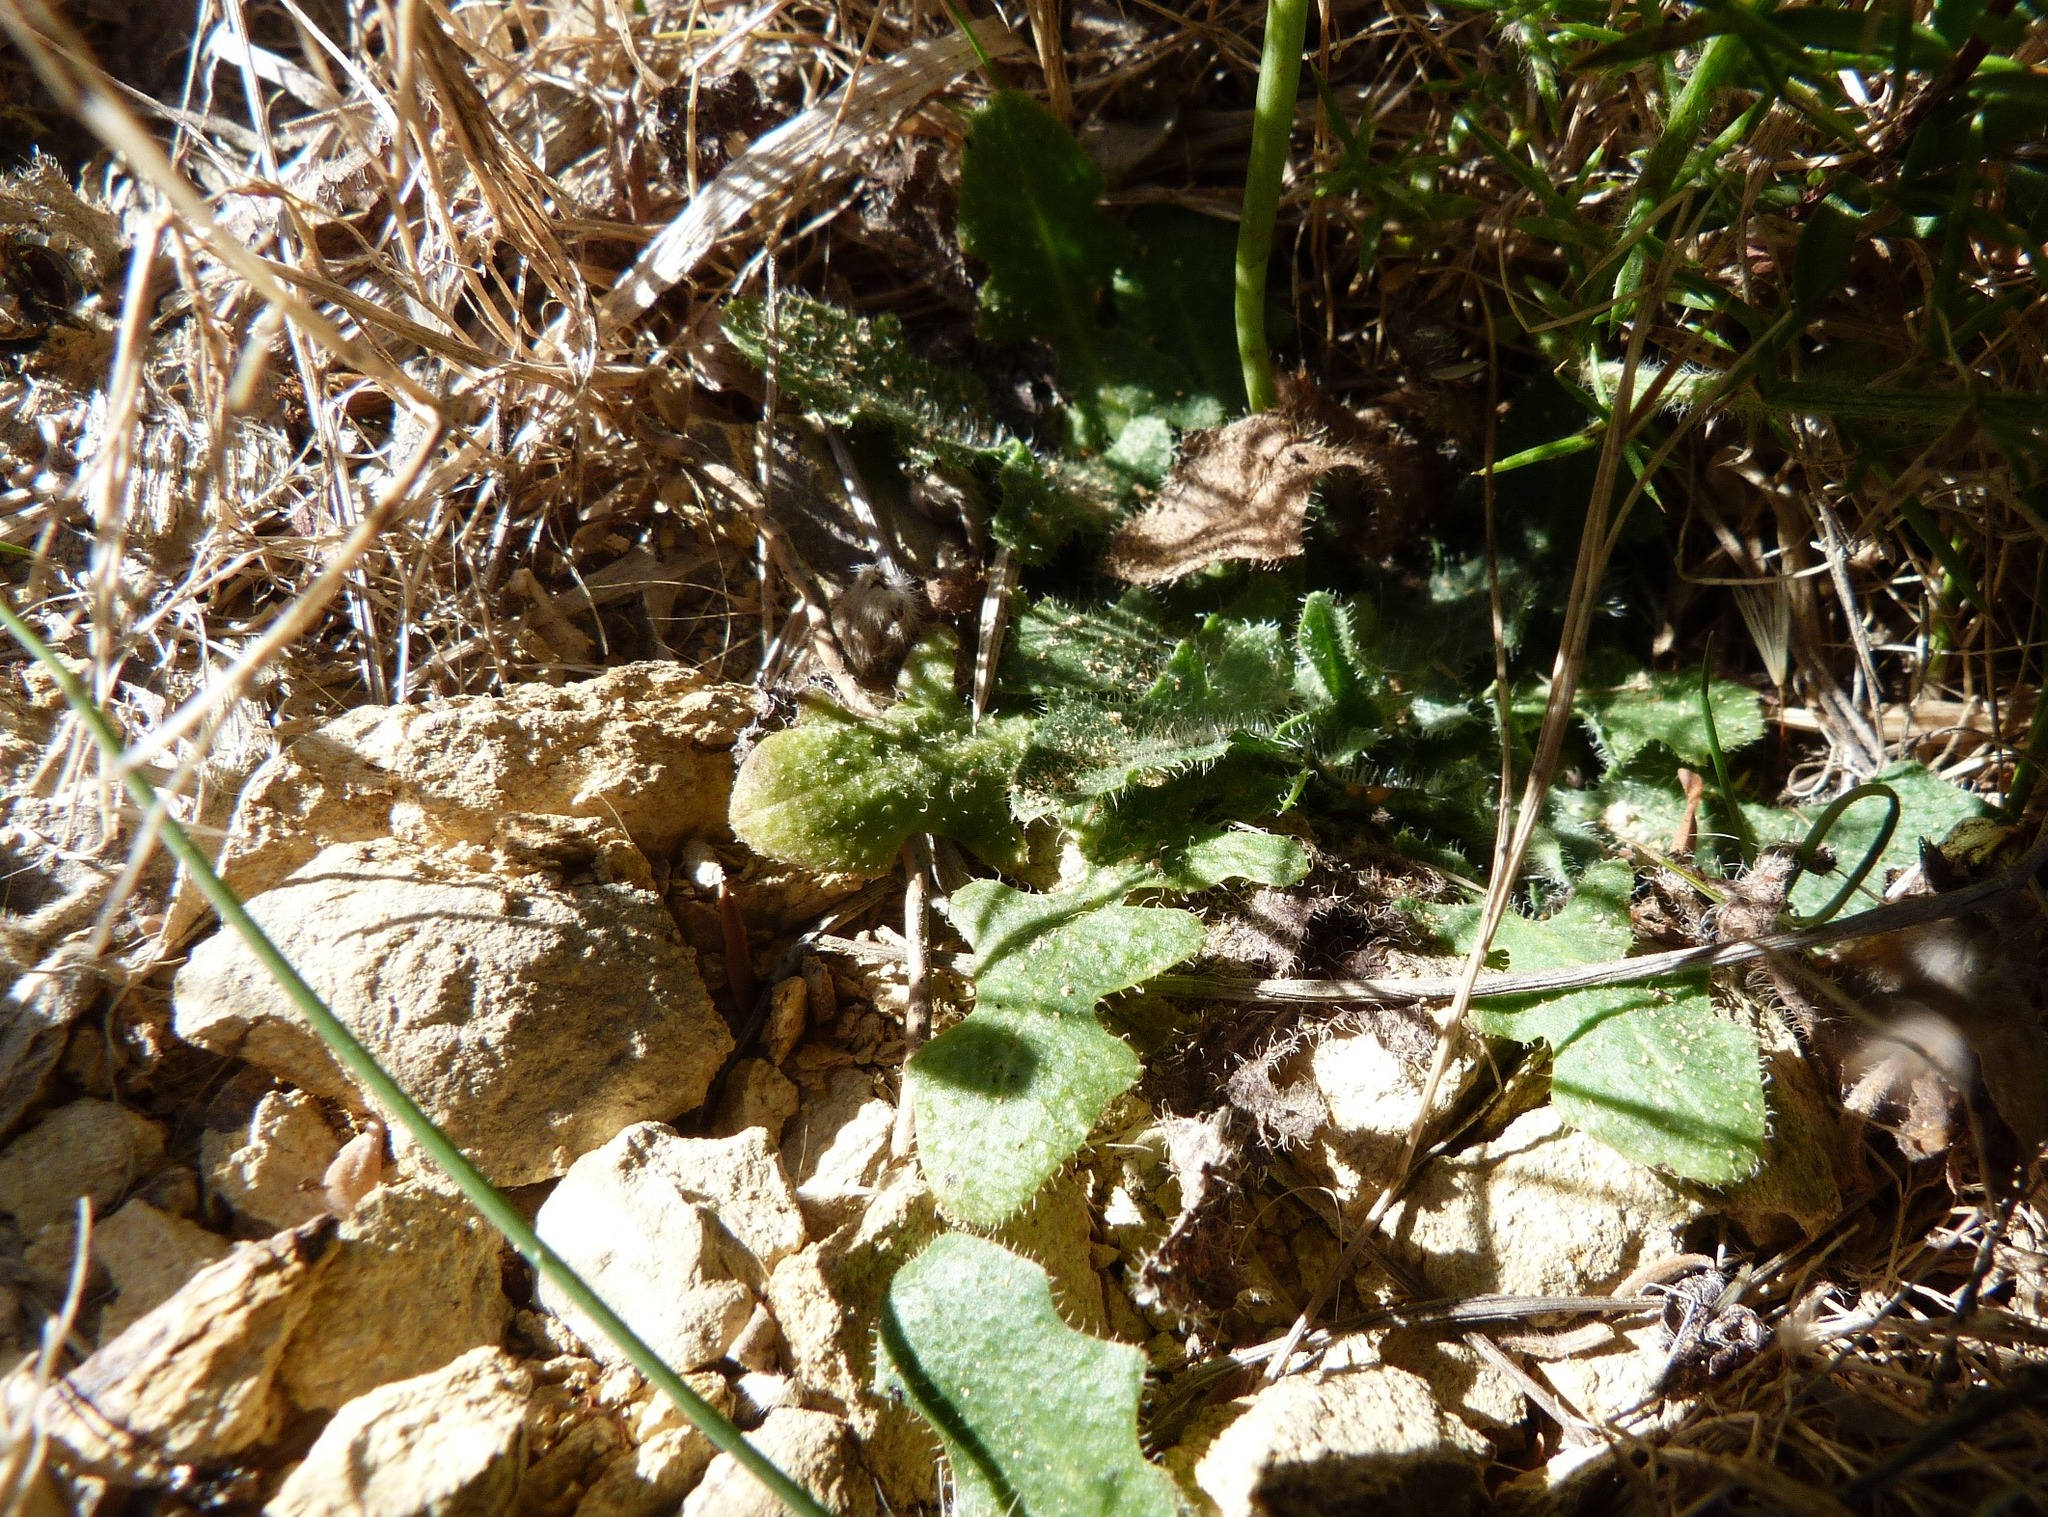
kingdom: Plantae
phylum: Tracheophyta
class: Magnoliopsida
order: Asterales
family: Asteraceae
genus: Thrincia
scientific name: Thrincia saxatilis
